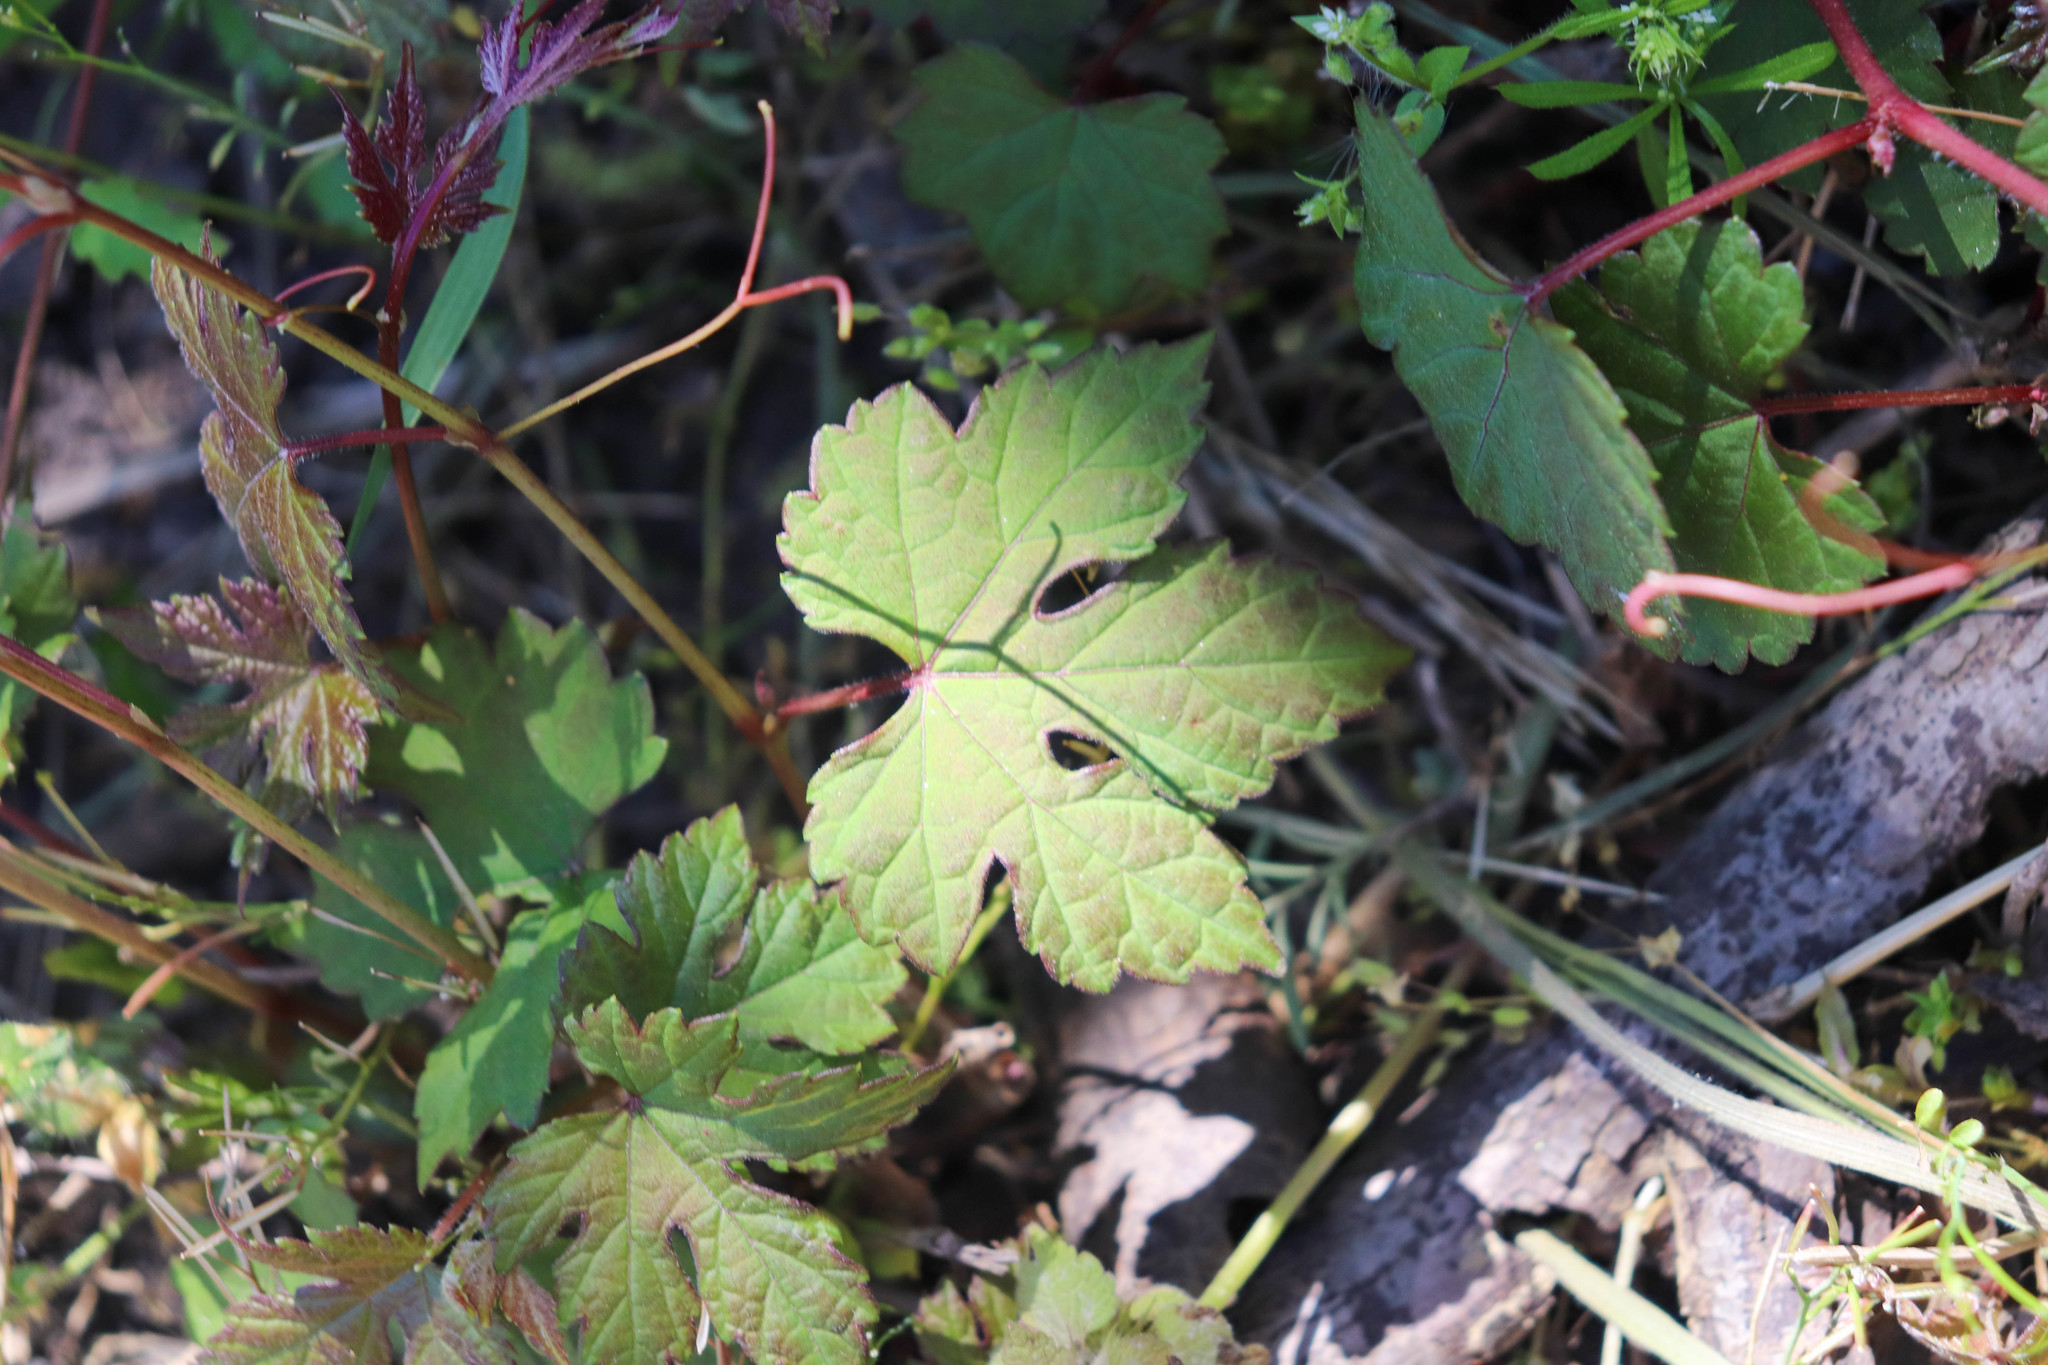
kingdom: Plantae
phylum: Tracheophyta
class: Magnoliopsida
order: Vitales
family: Vitaceae
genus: Ampelopsis
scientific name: Ampelopsis glandulosa
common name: Amur peppervine
